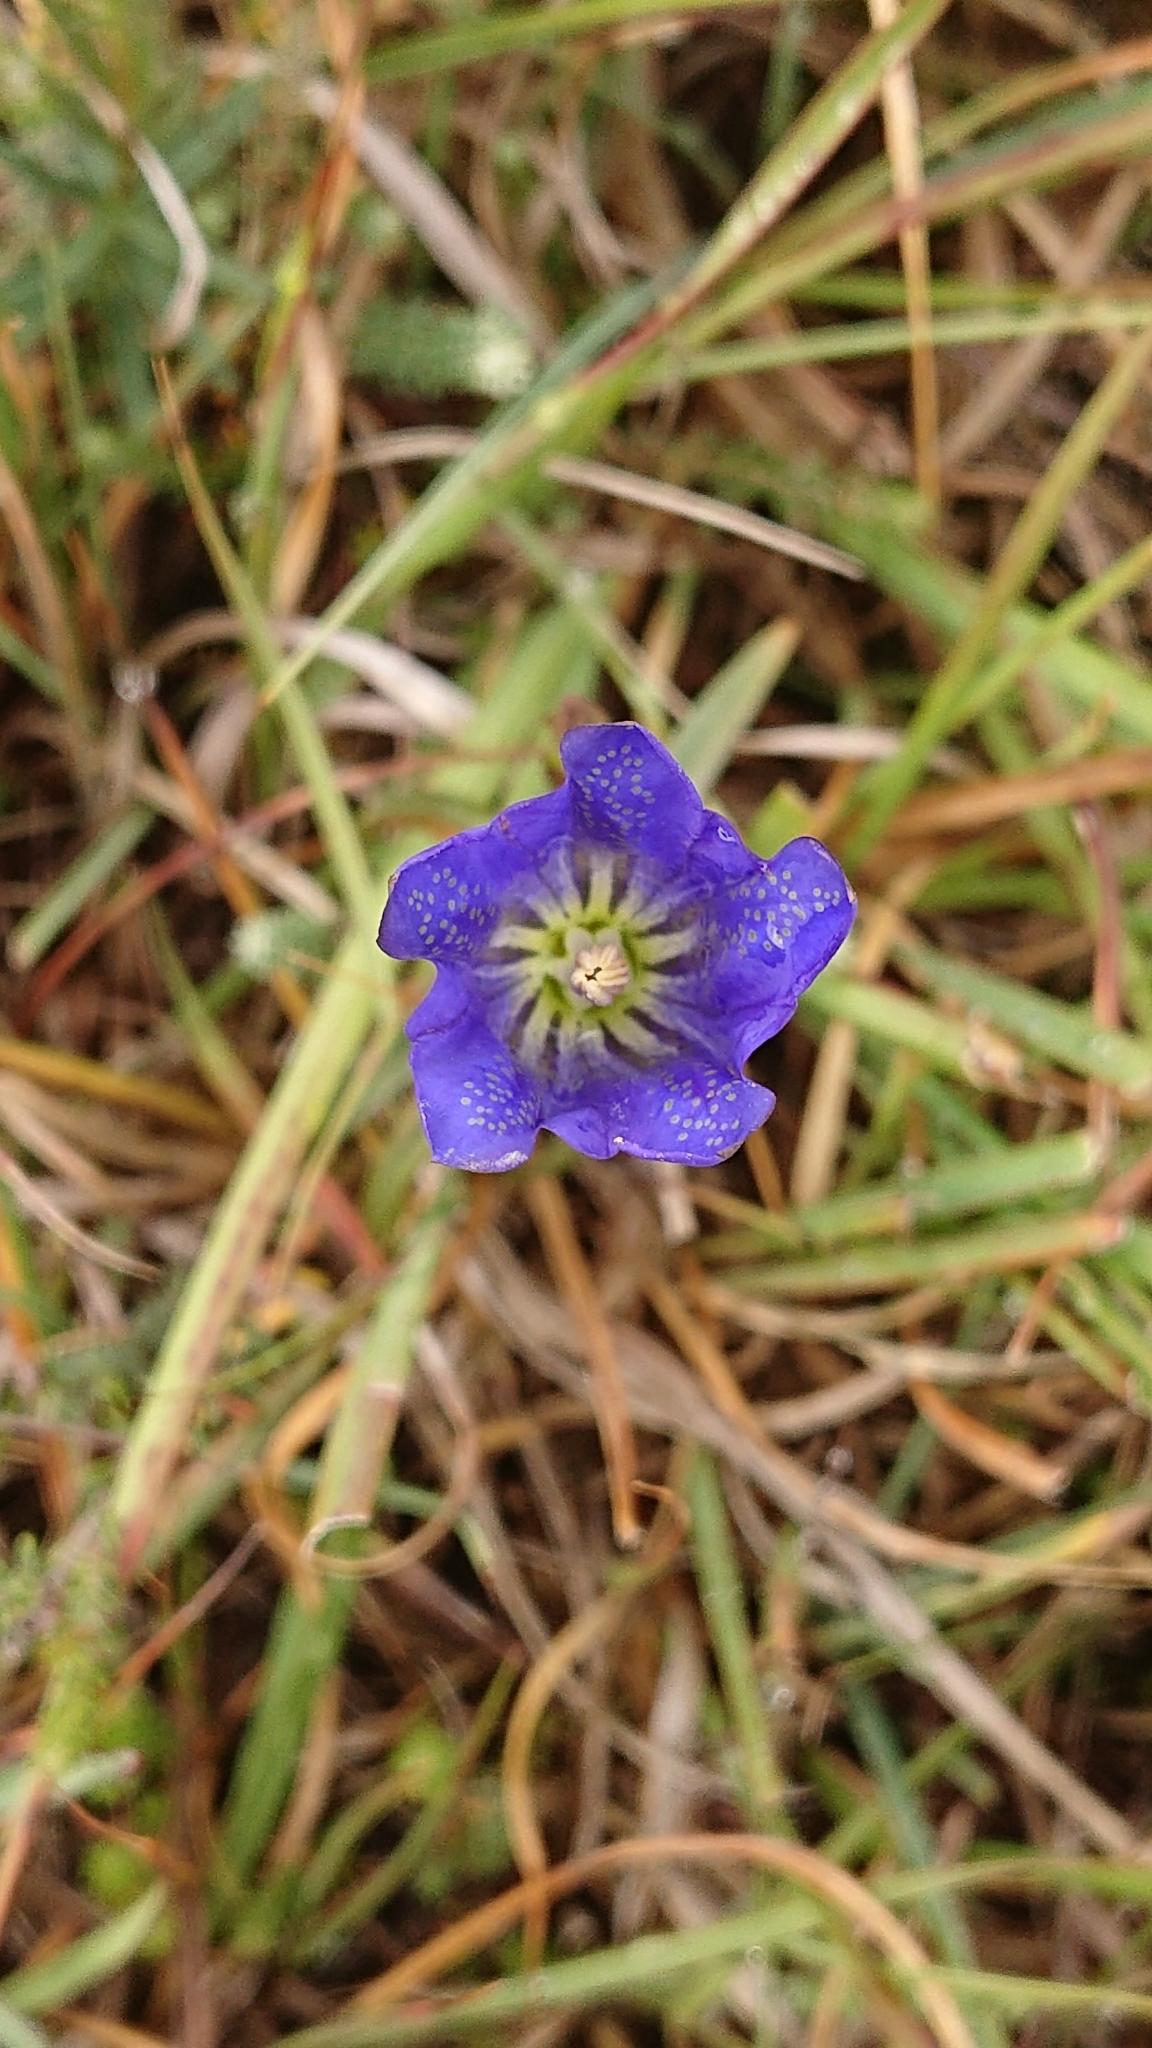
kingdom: Plantae
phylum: Tracheophyta
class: Magnoliopsida
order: Gentianales
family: Gentianaceae
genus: Gentiana
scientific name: Gentiana pneumonanthe
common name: Marsh gentian
